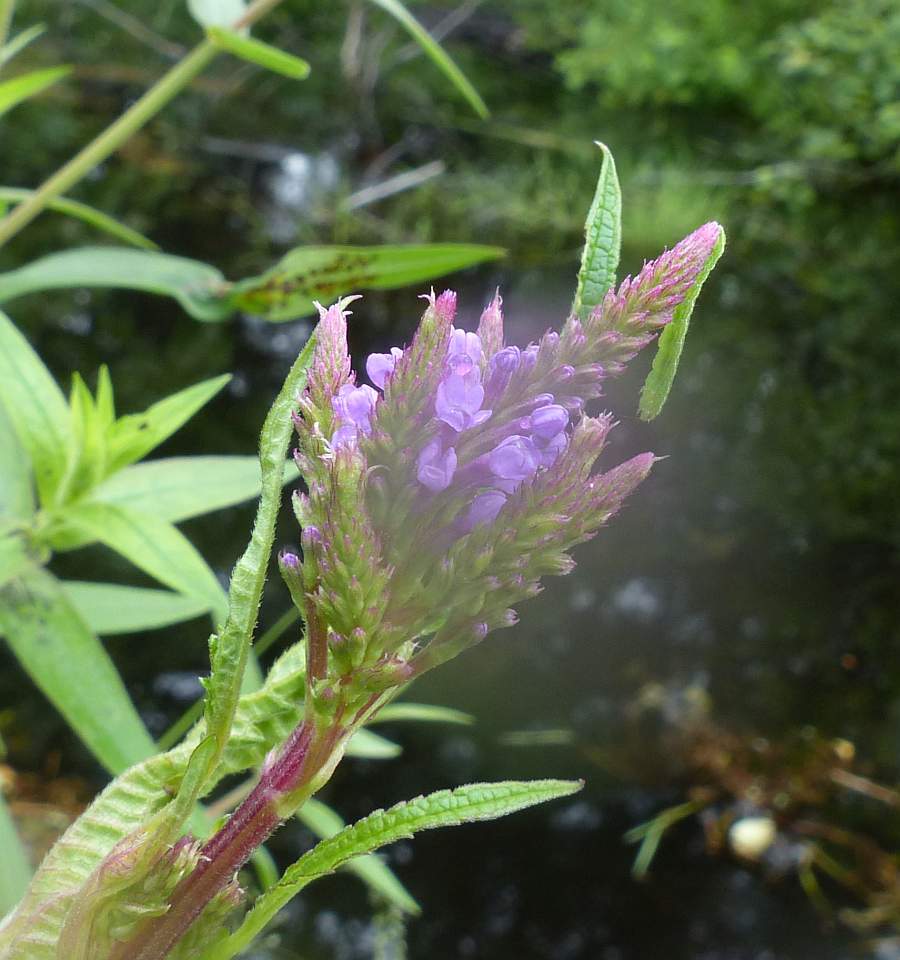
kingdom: Plantae
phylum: Tracheophyta
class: Magnoliopsida
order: Lamiales
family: Verbenaceae
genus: Verbena
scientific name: Verbena hastata
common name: American blue vervain
